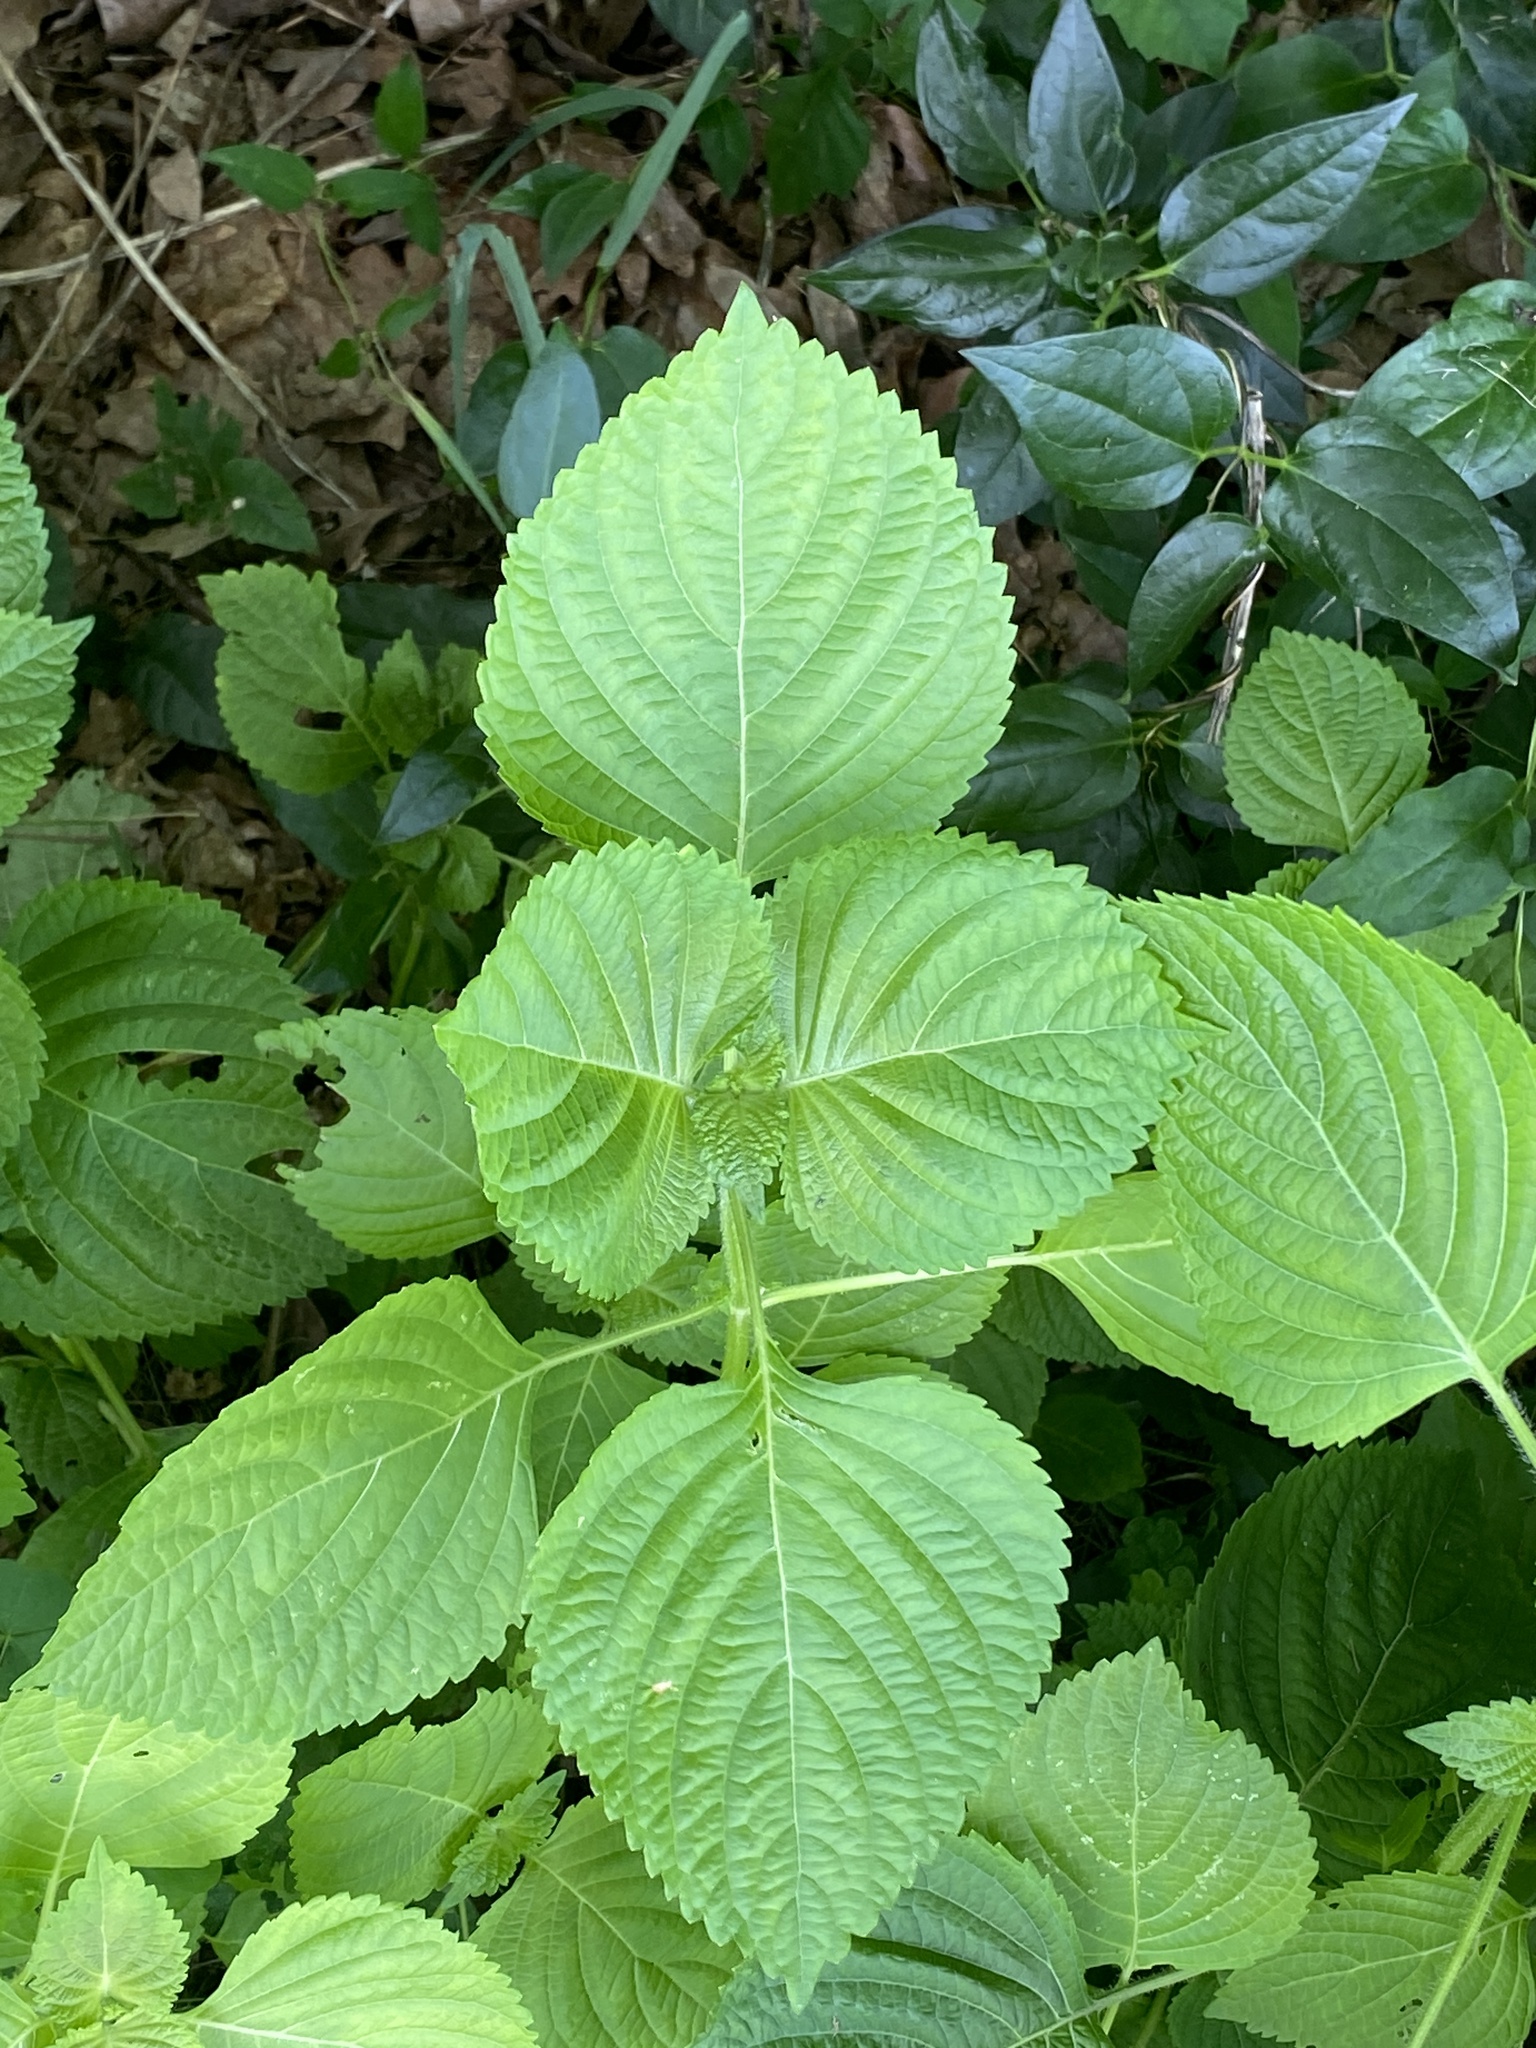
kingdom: Plantae
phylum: Tracheophyta
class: Magnoliopsida
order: Lamiales
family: Lamiaceae
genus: Perilla
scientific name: Perilla frutescens
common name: Perilla
